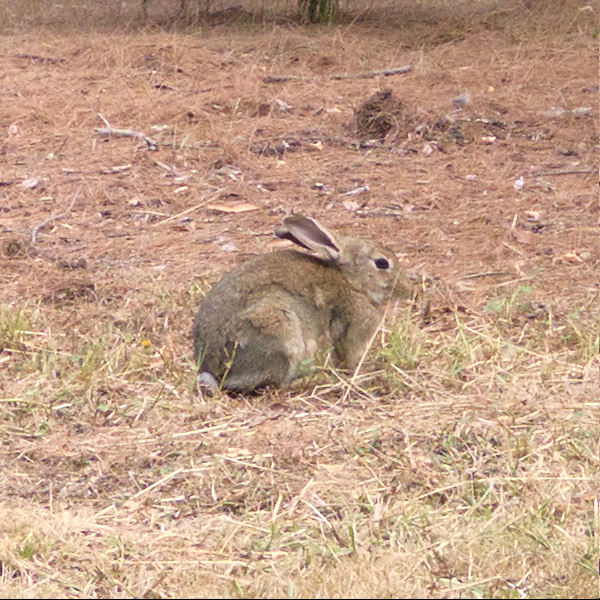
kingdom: Animalia
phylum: Chordata
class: Mammalia
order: Lagomorpha
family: Leporidae
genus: Oryctolagus
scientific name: Oryctolagus cuniculus
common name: European rabbit
